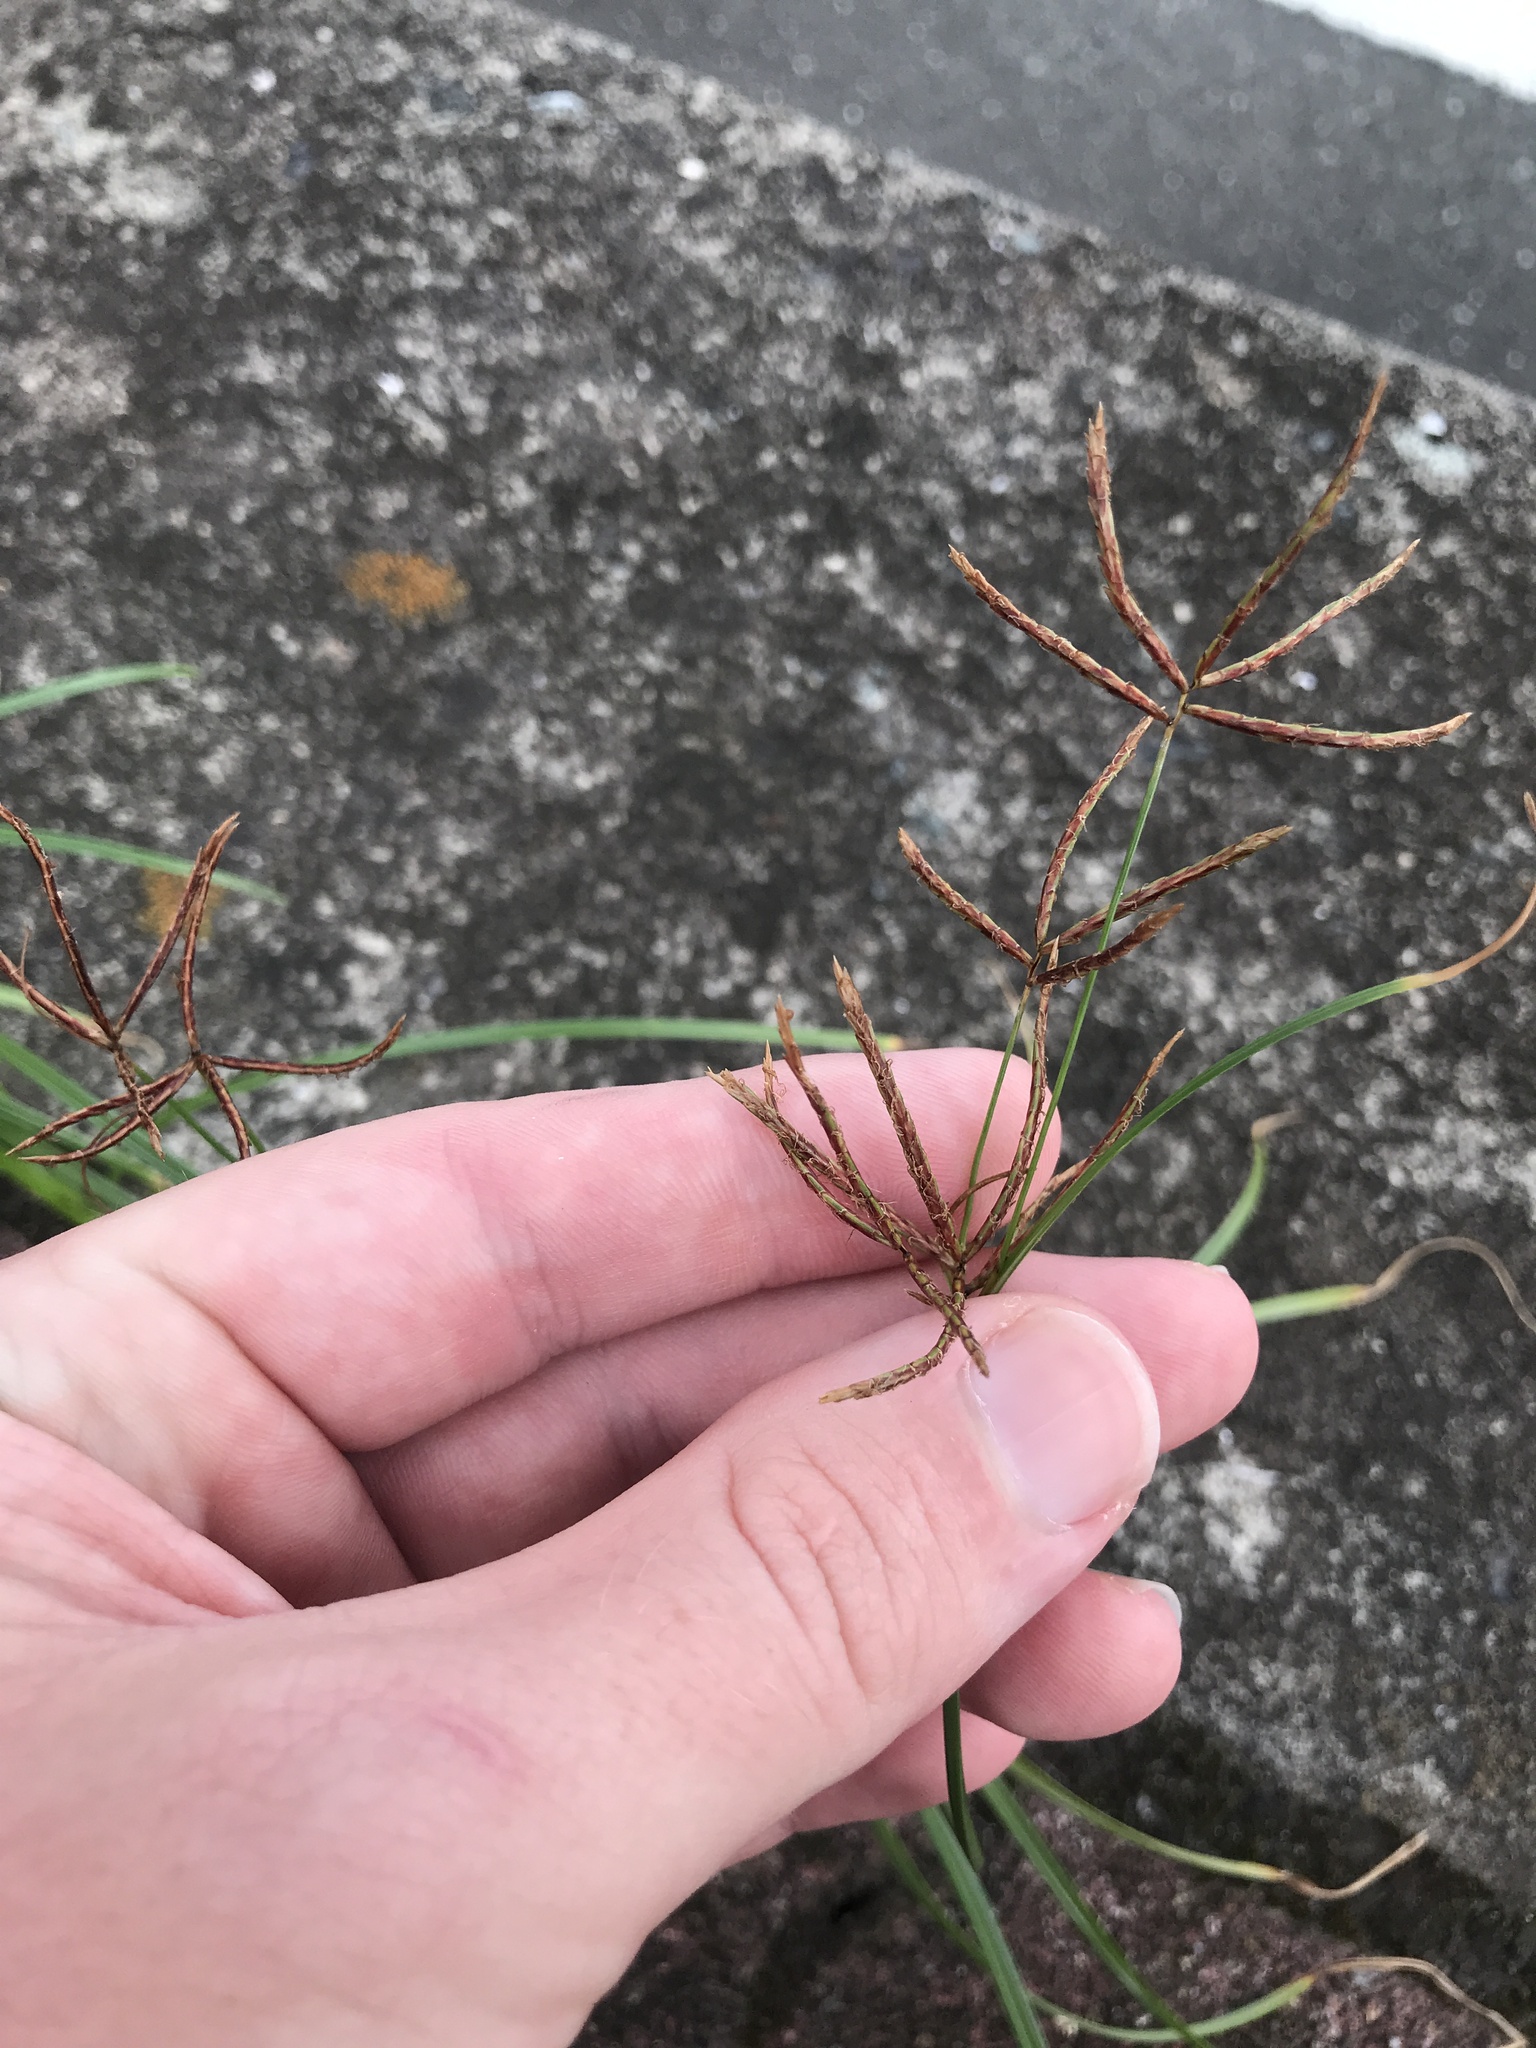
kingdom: Plantae
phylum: Tracheophyta
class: Liliopsida
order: Poales
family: Cyperaceae
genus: Cyperus
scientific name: Cyperus rotundus
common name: Nutgrass
